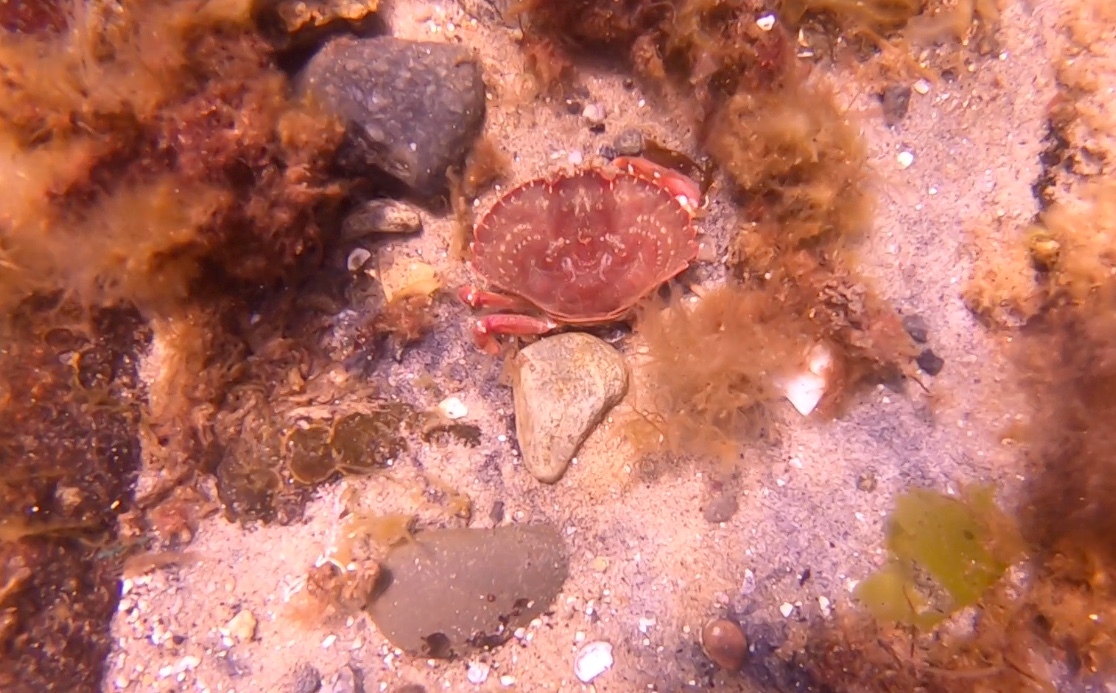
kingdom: Animalia
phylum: Arthropoda
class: Malacostraca
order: Decapoda
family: Cancridae
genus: Cancer
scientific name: Cancer irroratus
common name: Atlantic rock crab
